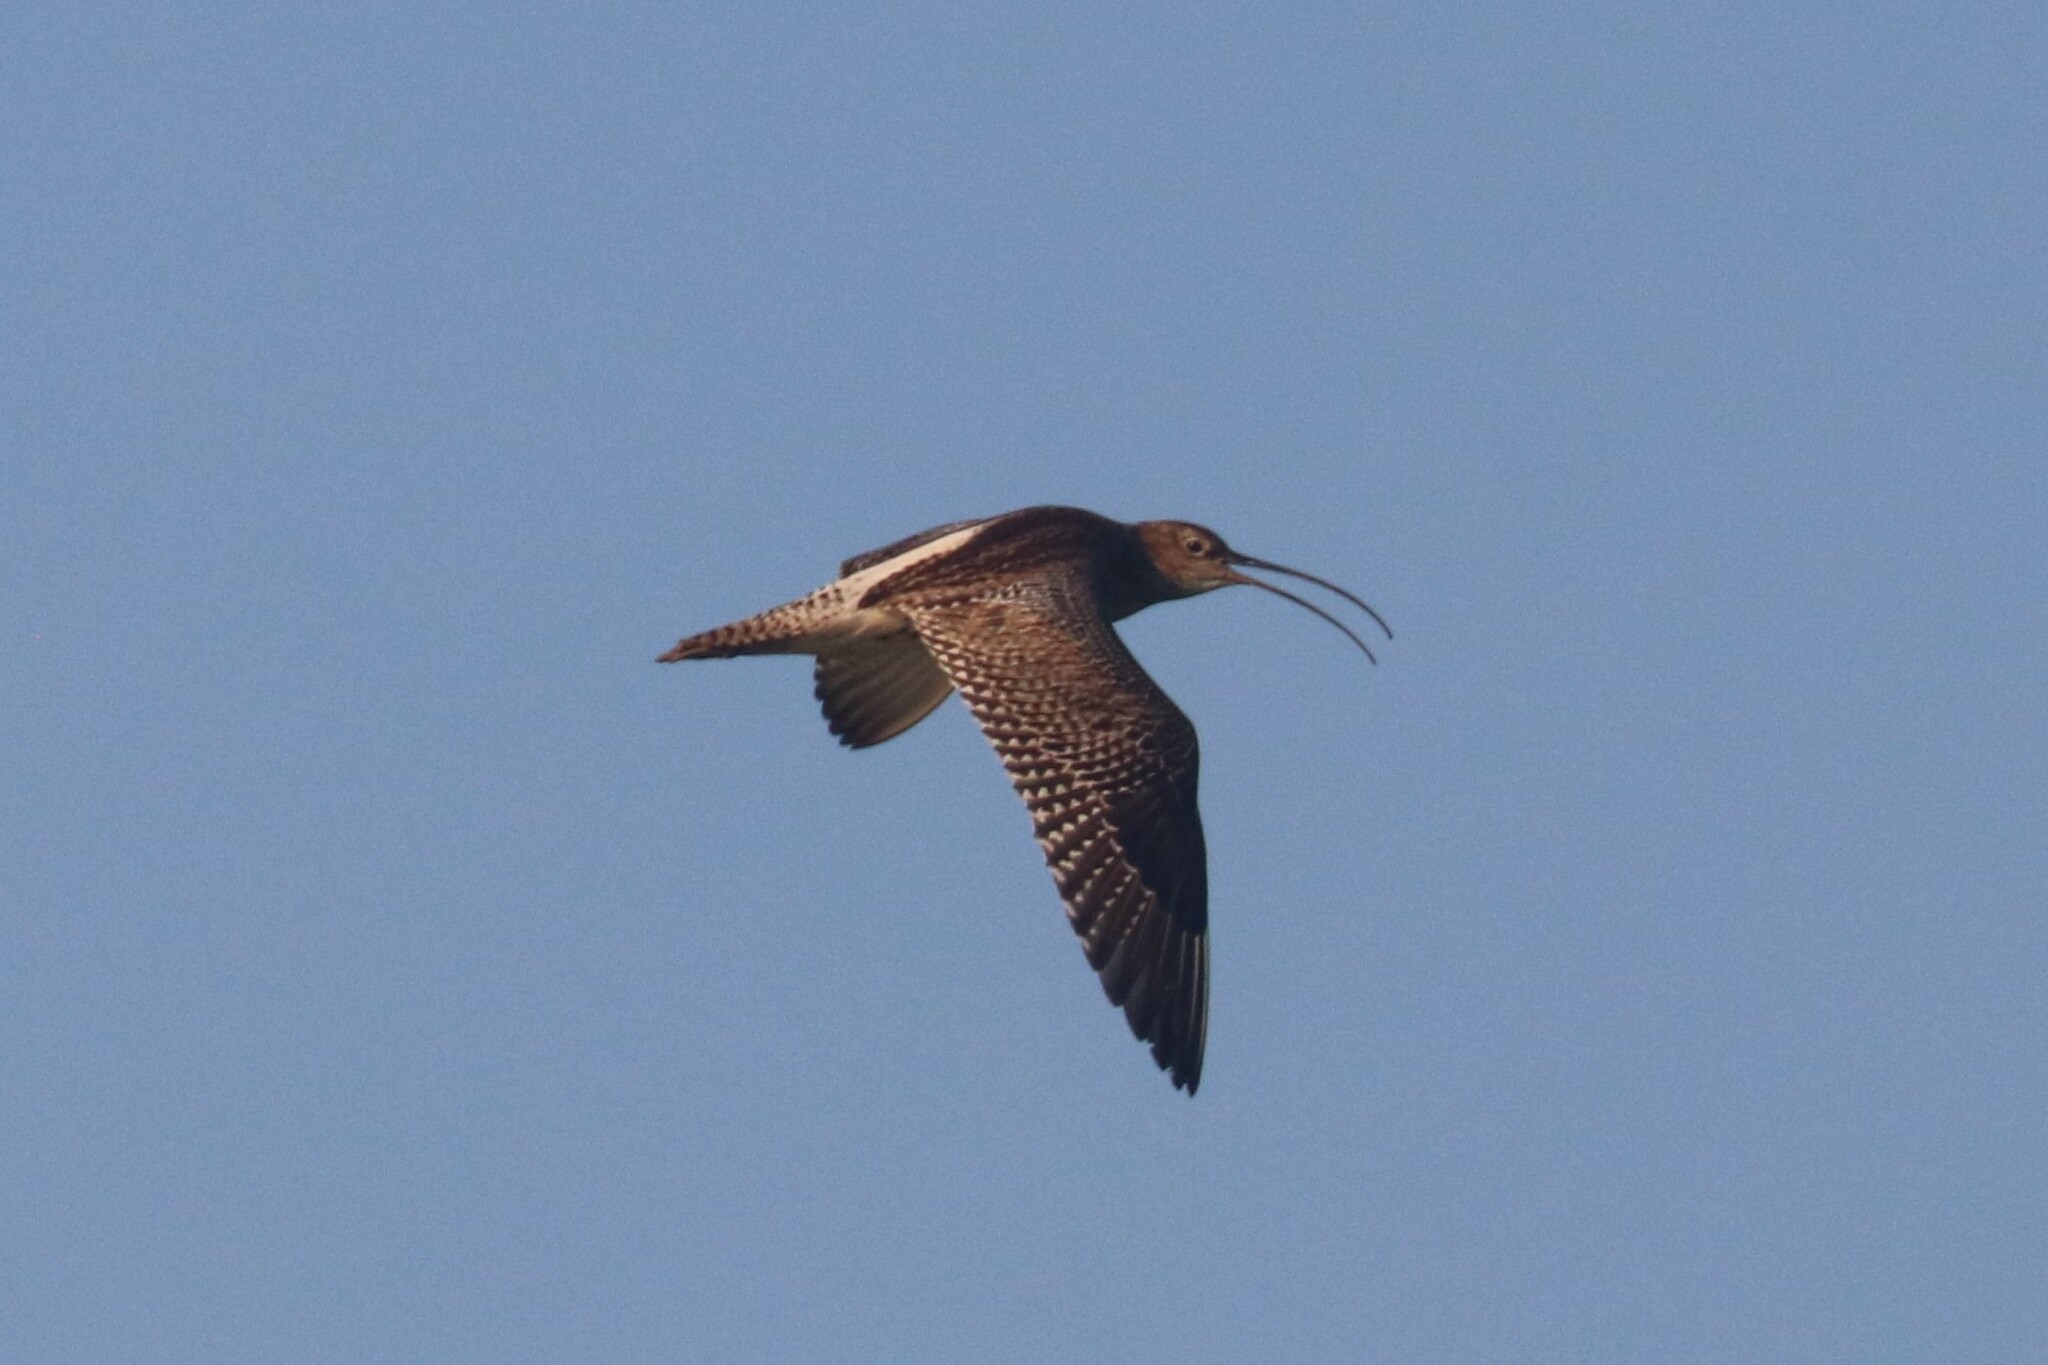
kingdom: Animalia
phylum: Chordata
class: Aves
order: Charadriiformes
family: Scolopacidae
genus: Numenius
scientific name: Numenius arquata
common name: Eurasian curlew
